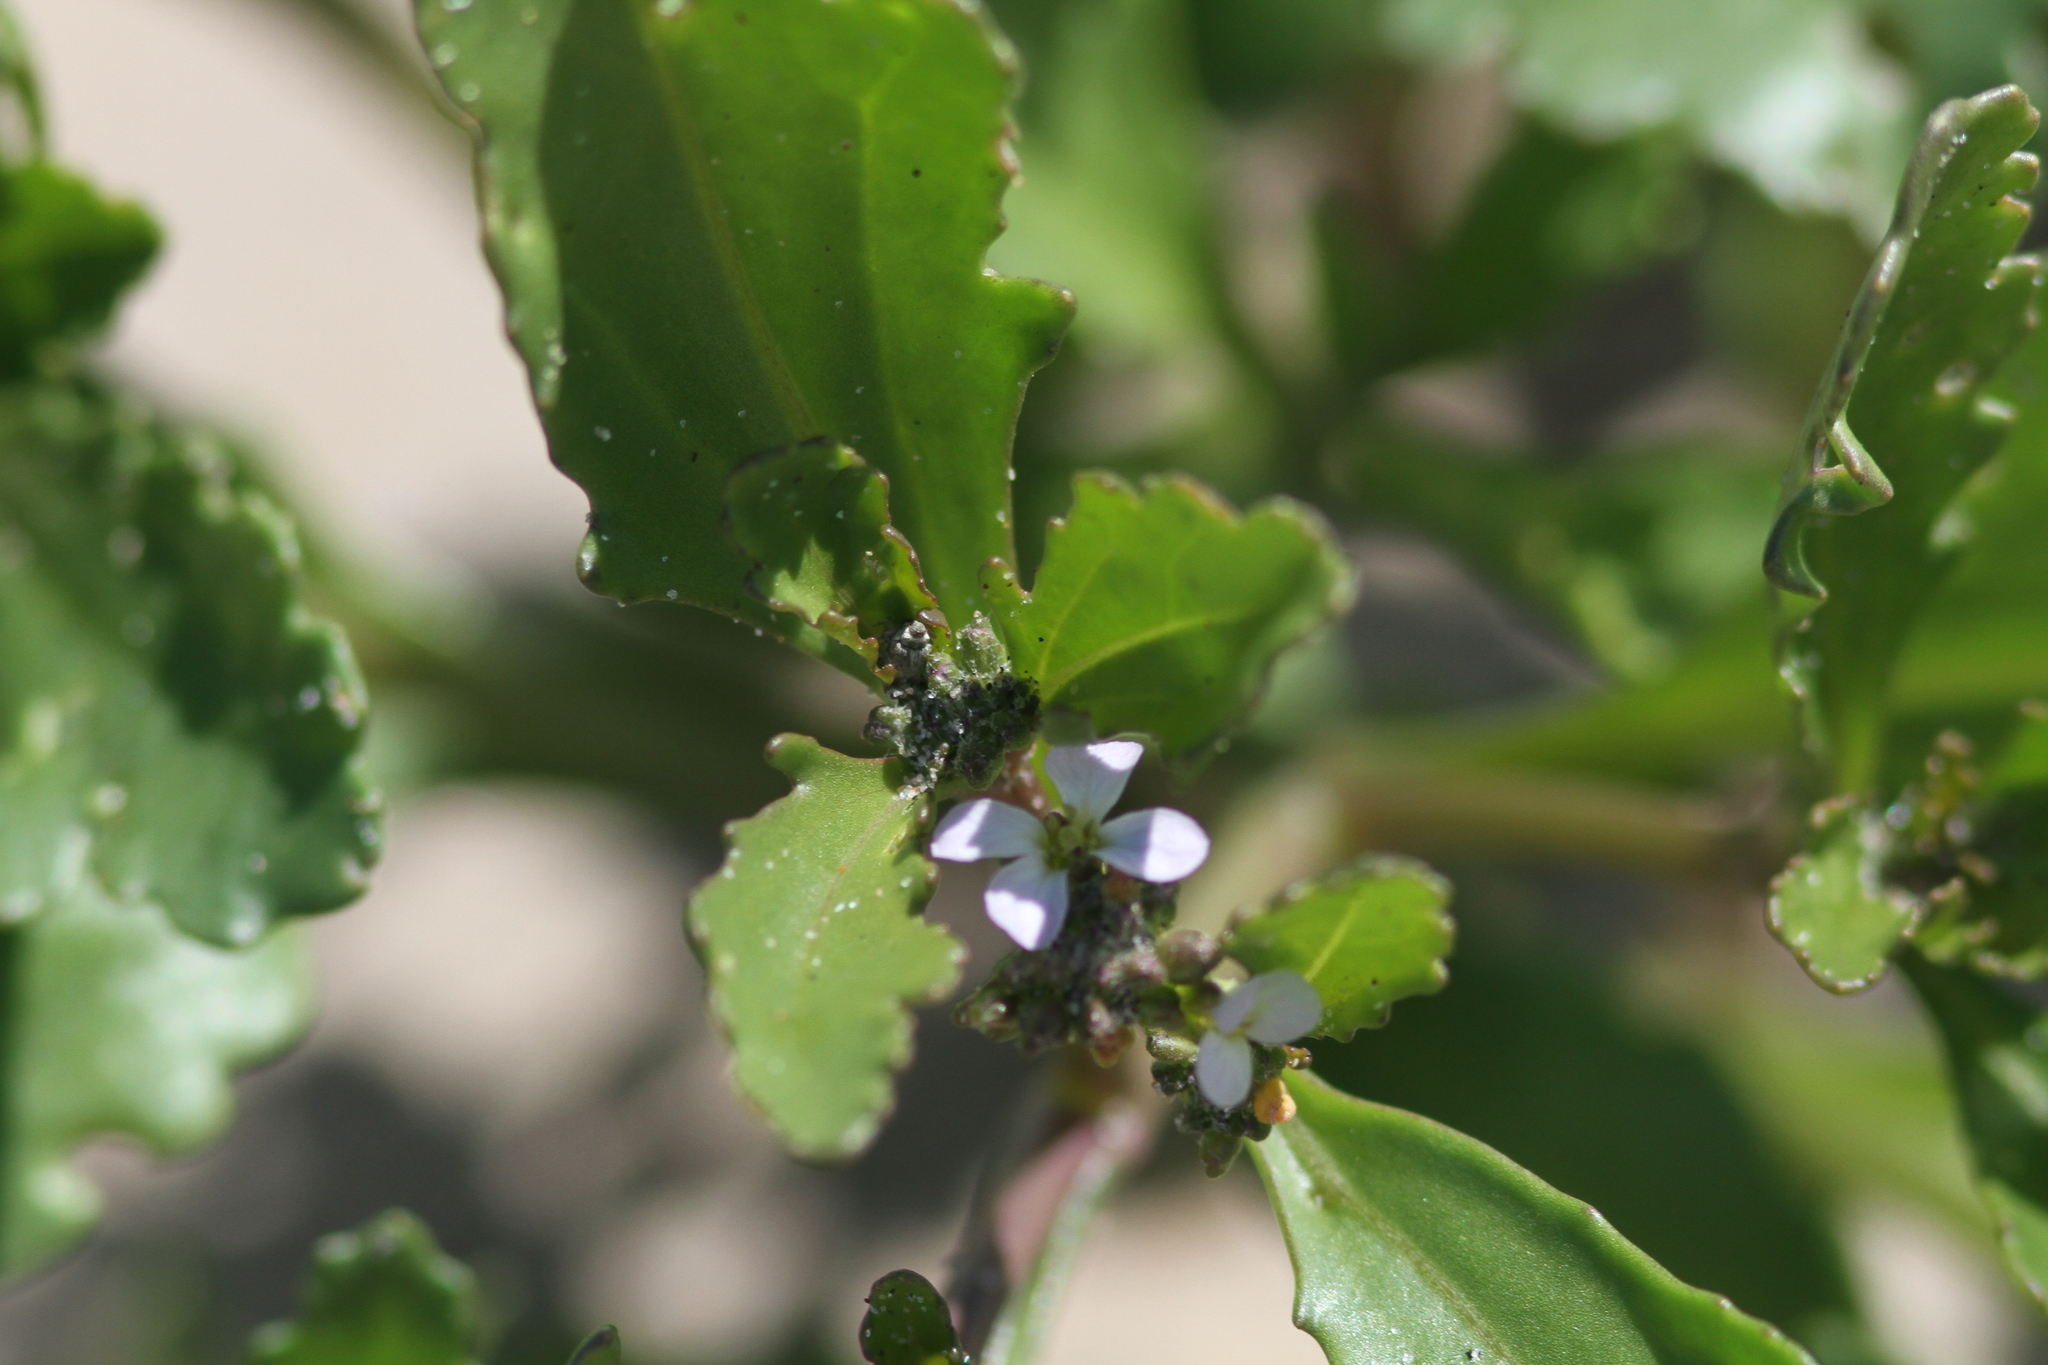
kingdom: Plantae
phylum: Tracheophyta
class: Magnoliopsida
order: Brassicales
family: Brassicaceae
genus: Cakile
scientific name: Cakile edentula
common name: American sea rocket
